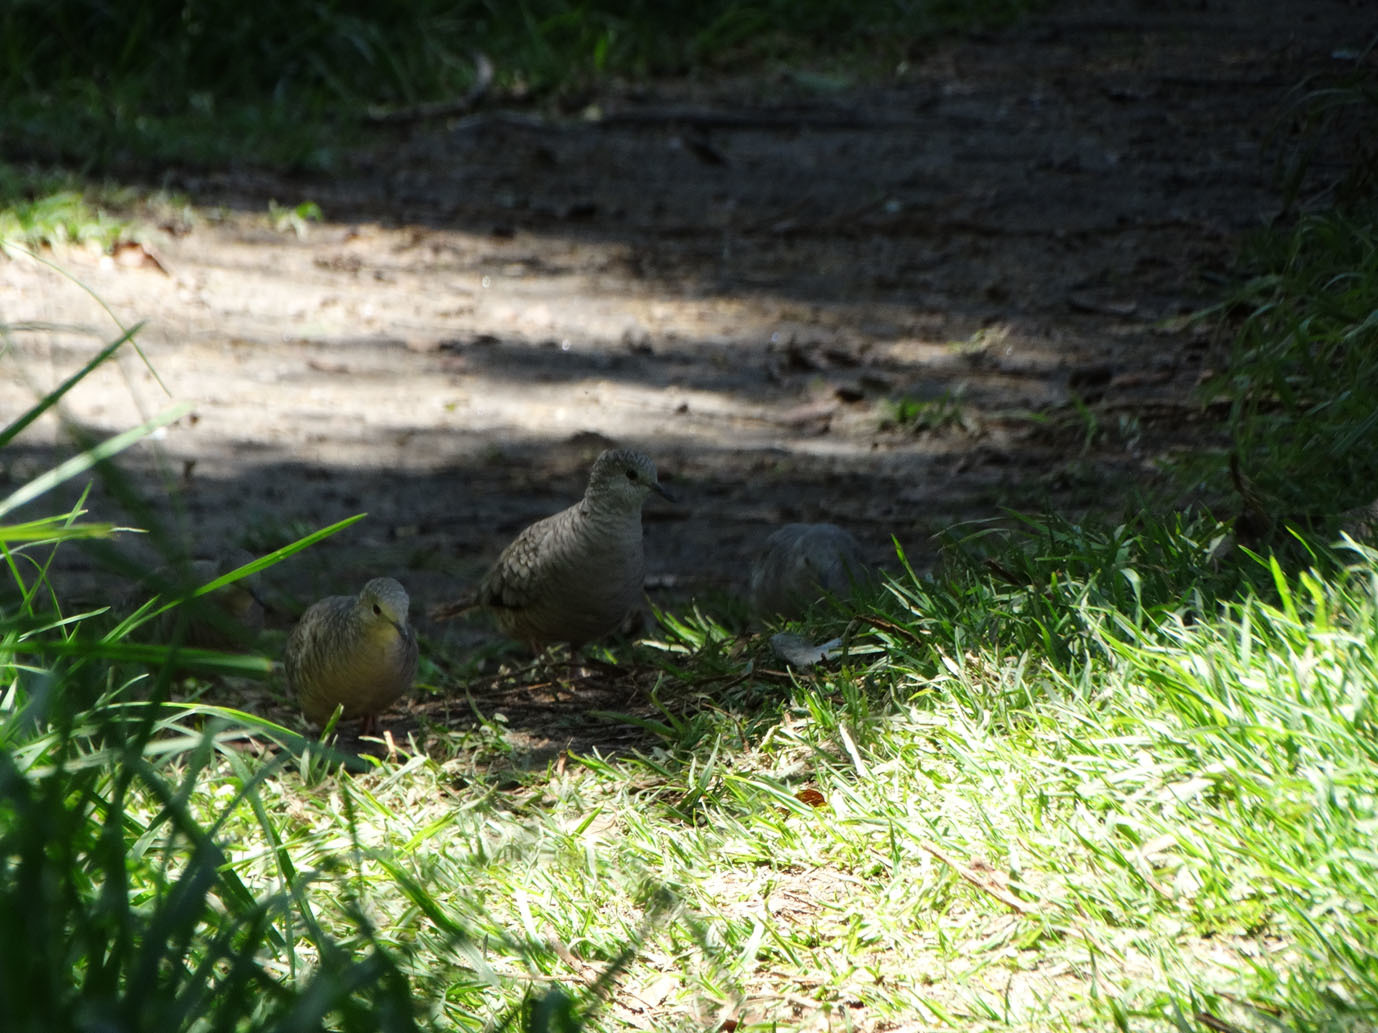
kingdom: Animalia
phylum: Chordata
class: Aves
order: Columbiformes
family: Columbidae
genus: Columbina
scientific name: Columbina inca
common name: Inca dove
